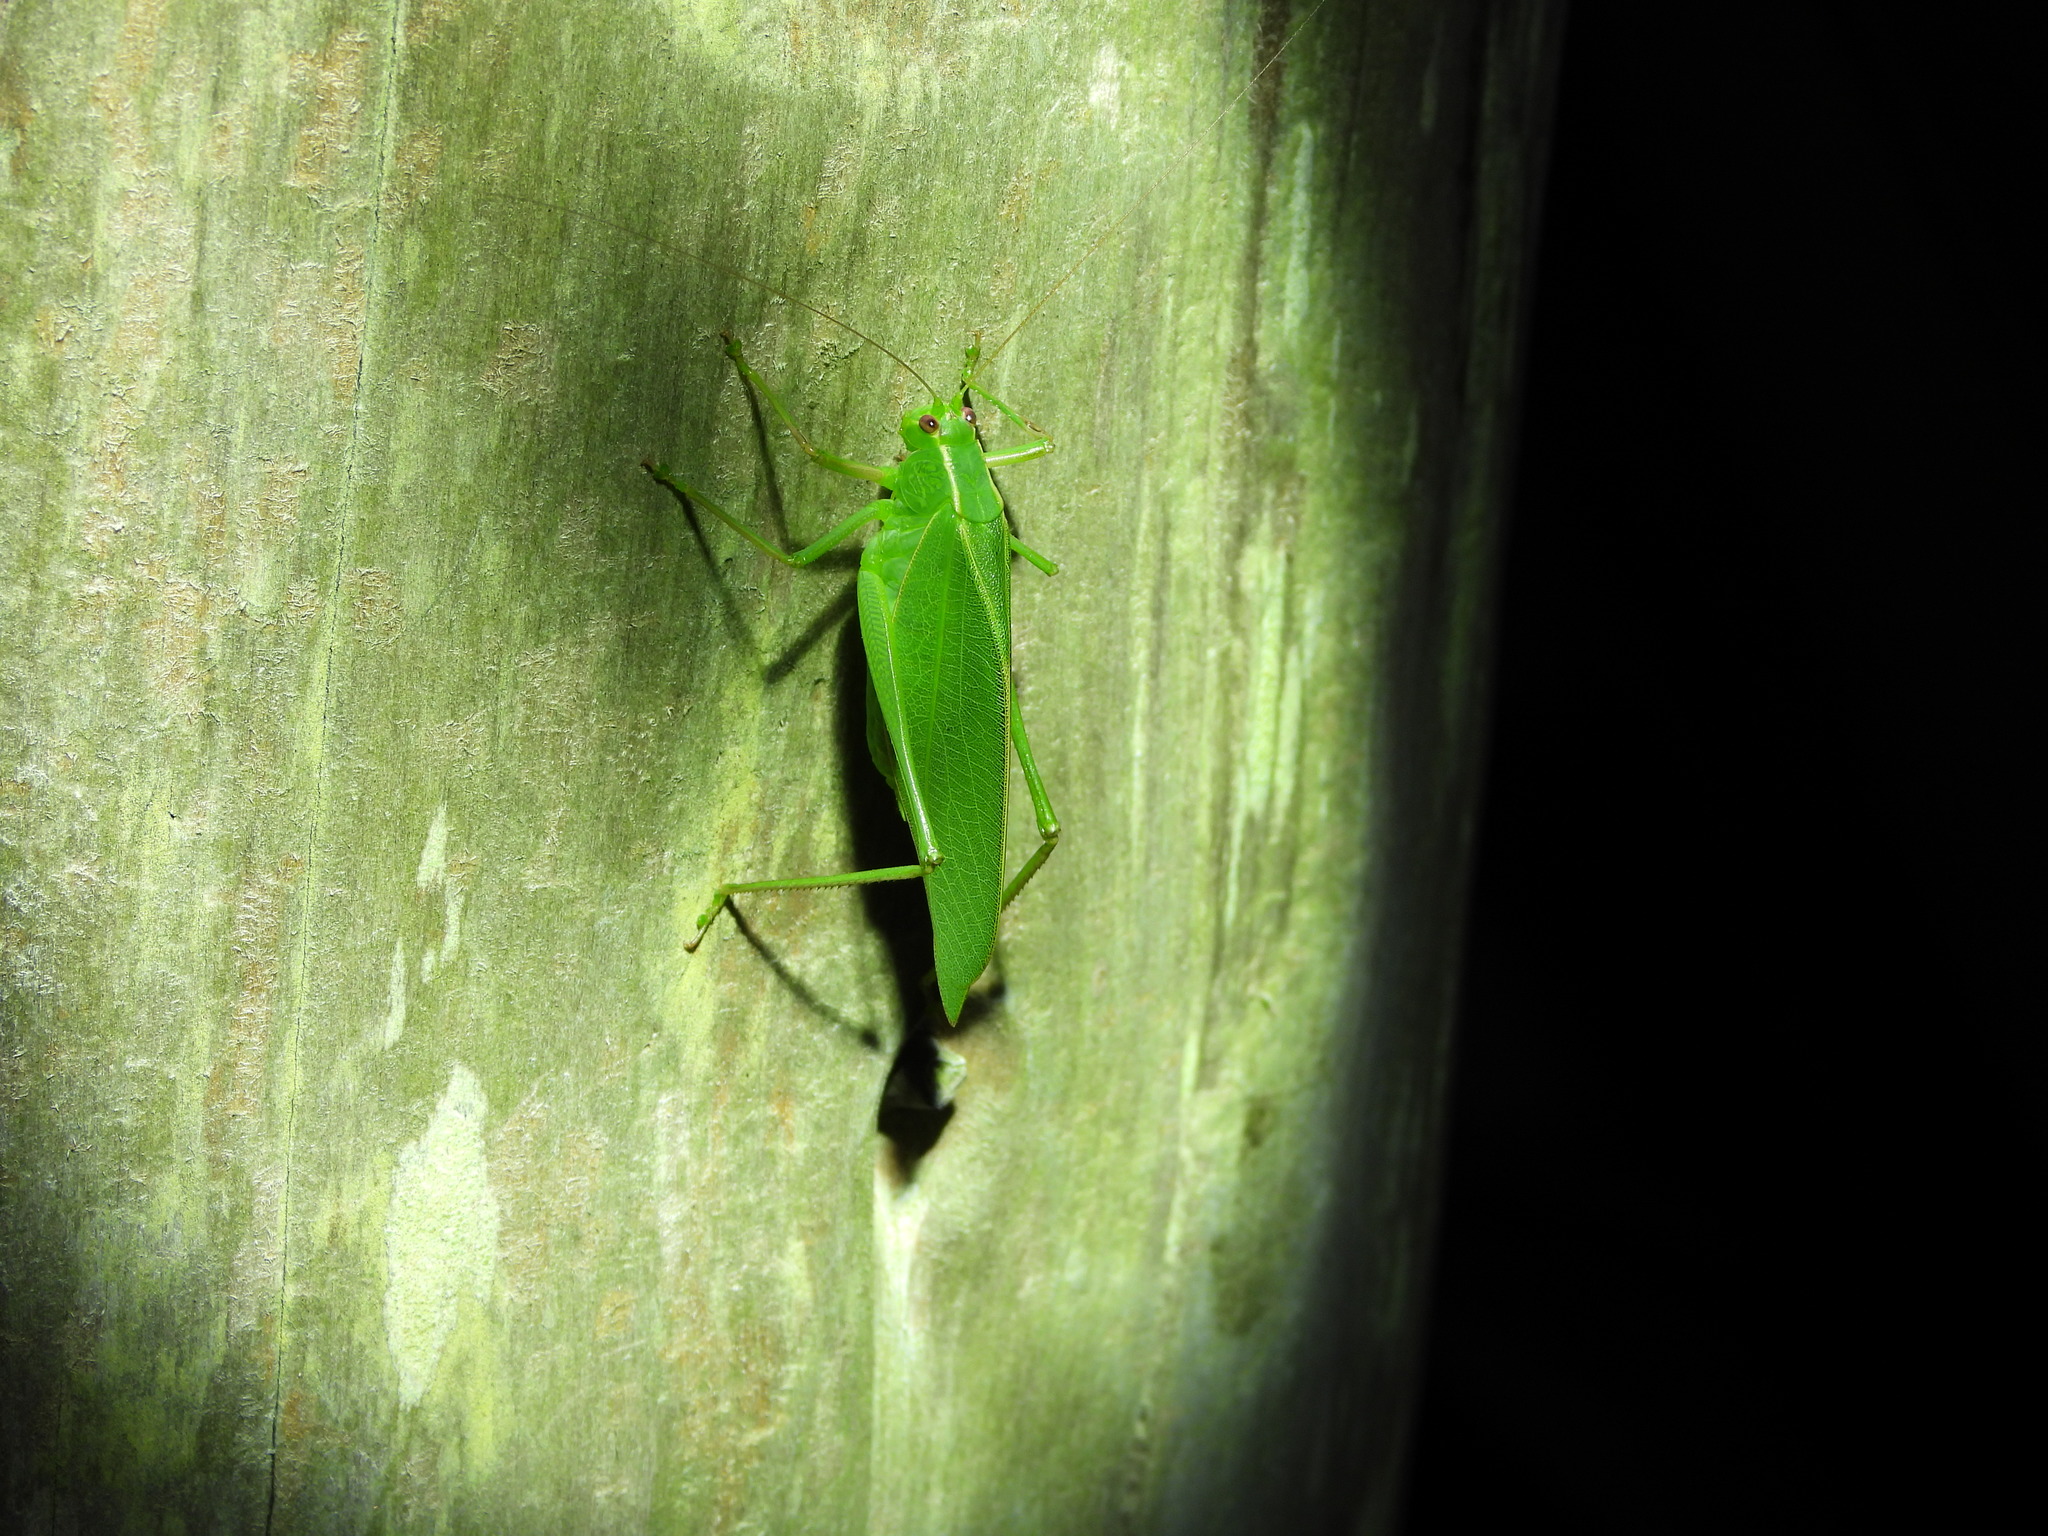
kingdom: Animalia
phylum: Arthropoda
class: Insecta
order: Orthoptera
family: Tettigoniidae
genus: Caedicia
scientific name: Caedicia simplex
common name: Common garden katydid
